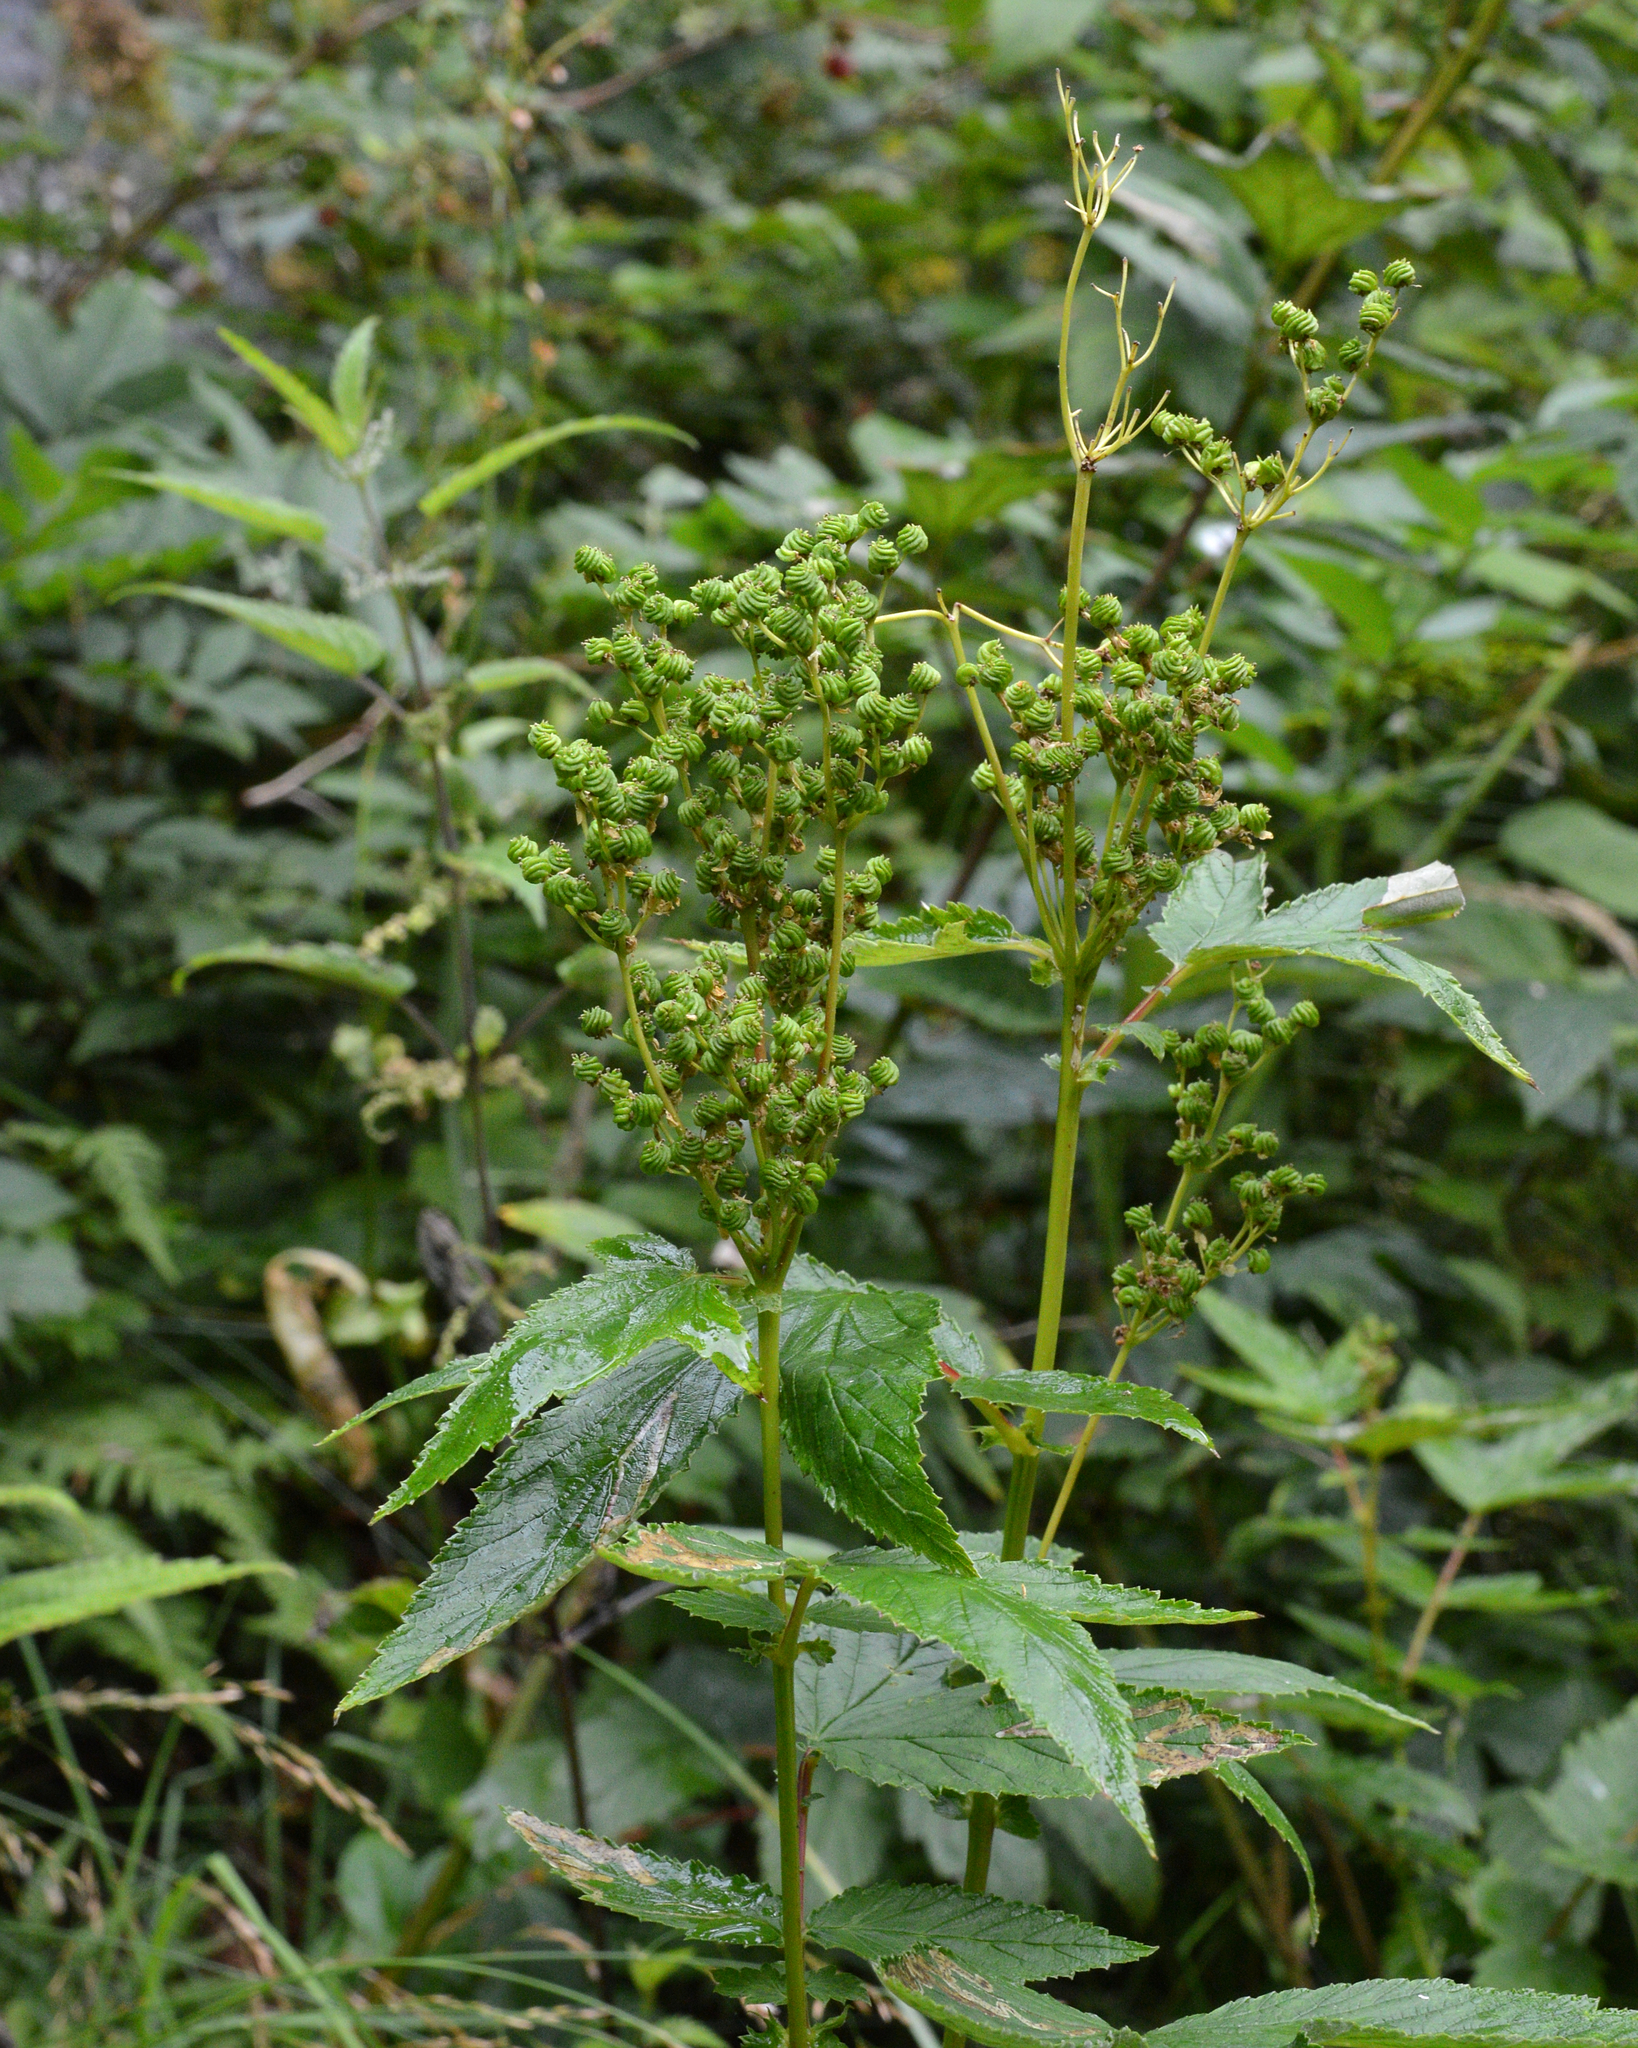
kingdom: Plantae
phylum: Tracheophyta
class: Magnoliopsida
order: Rosales
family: Rosaceae
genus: Filipendula
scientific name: Filipendula ulmaria
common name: Meadowsweet
